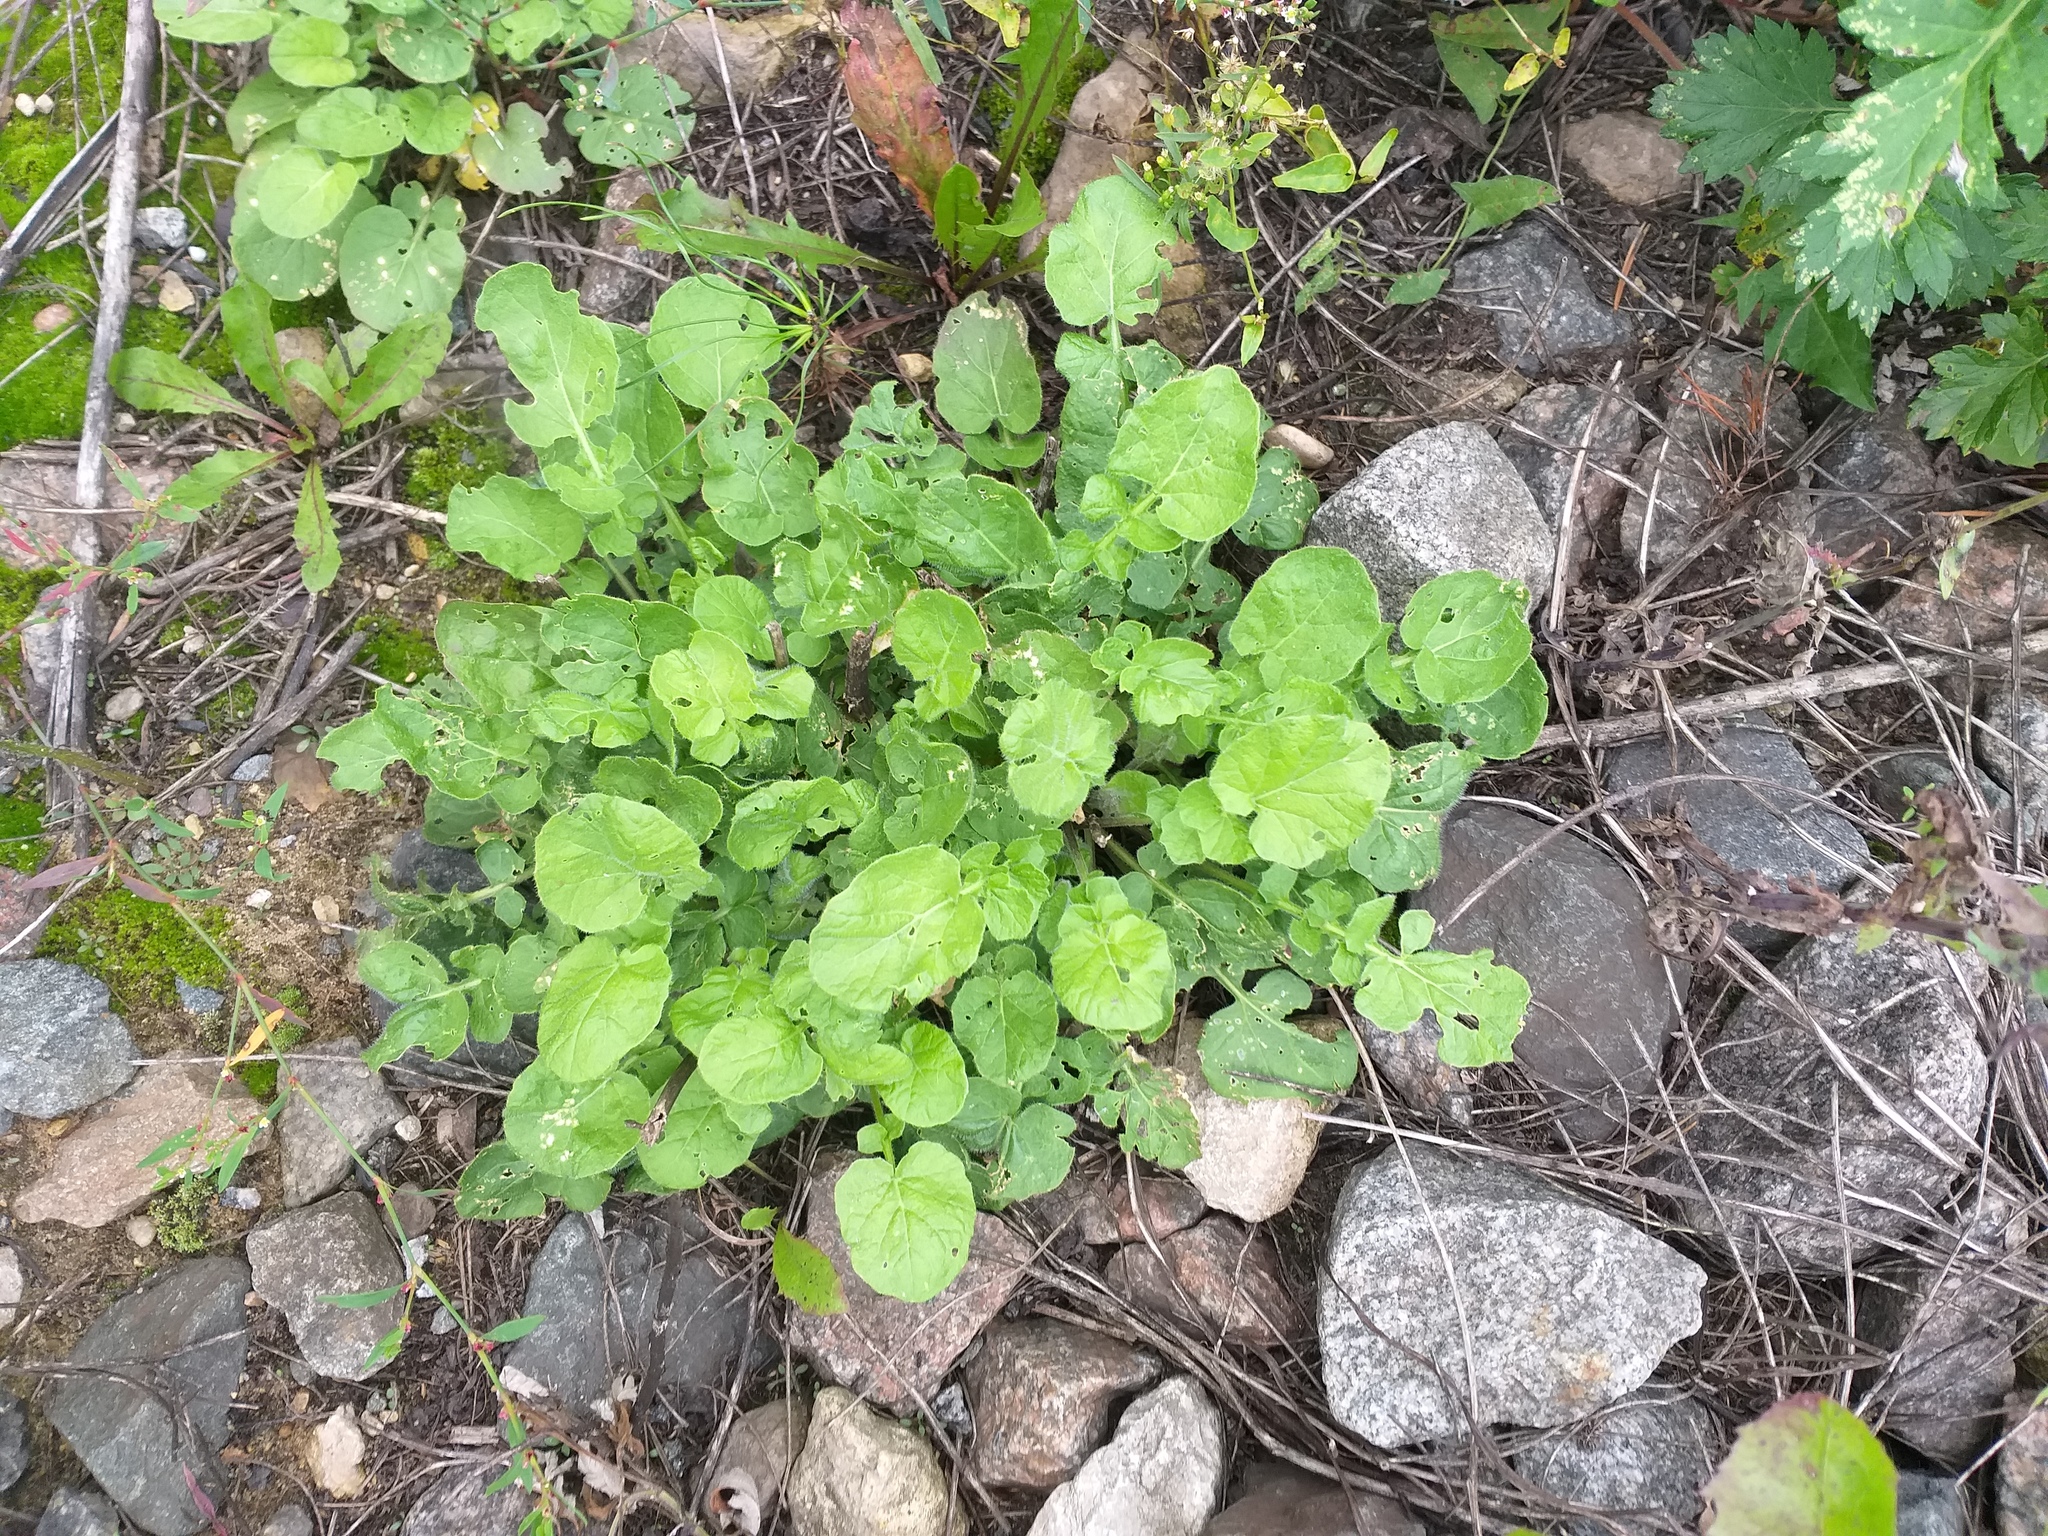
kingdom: Plantae
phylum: Tracheophyta
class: Magnoliopsida
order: Brassicales
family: Brassicaceae
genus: Barbarea
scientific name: Barbarea vulgaris
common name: Cressy-greens
